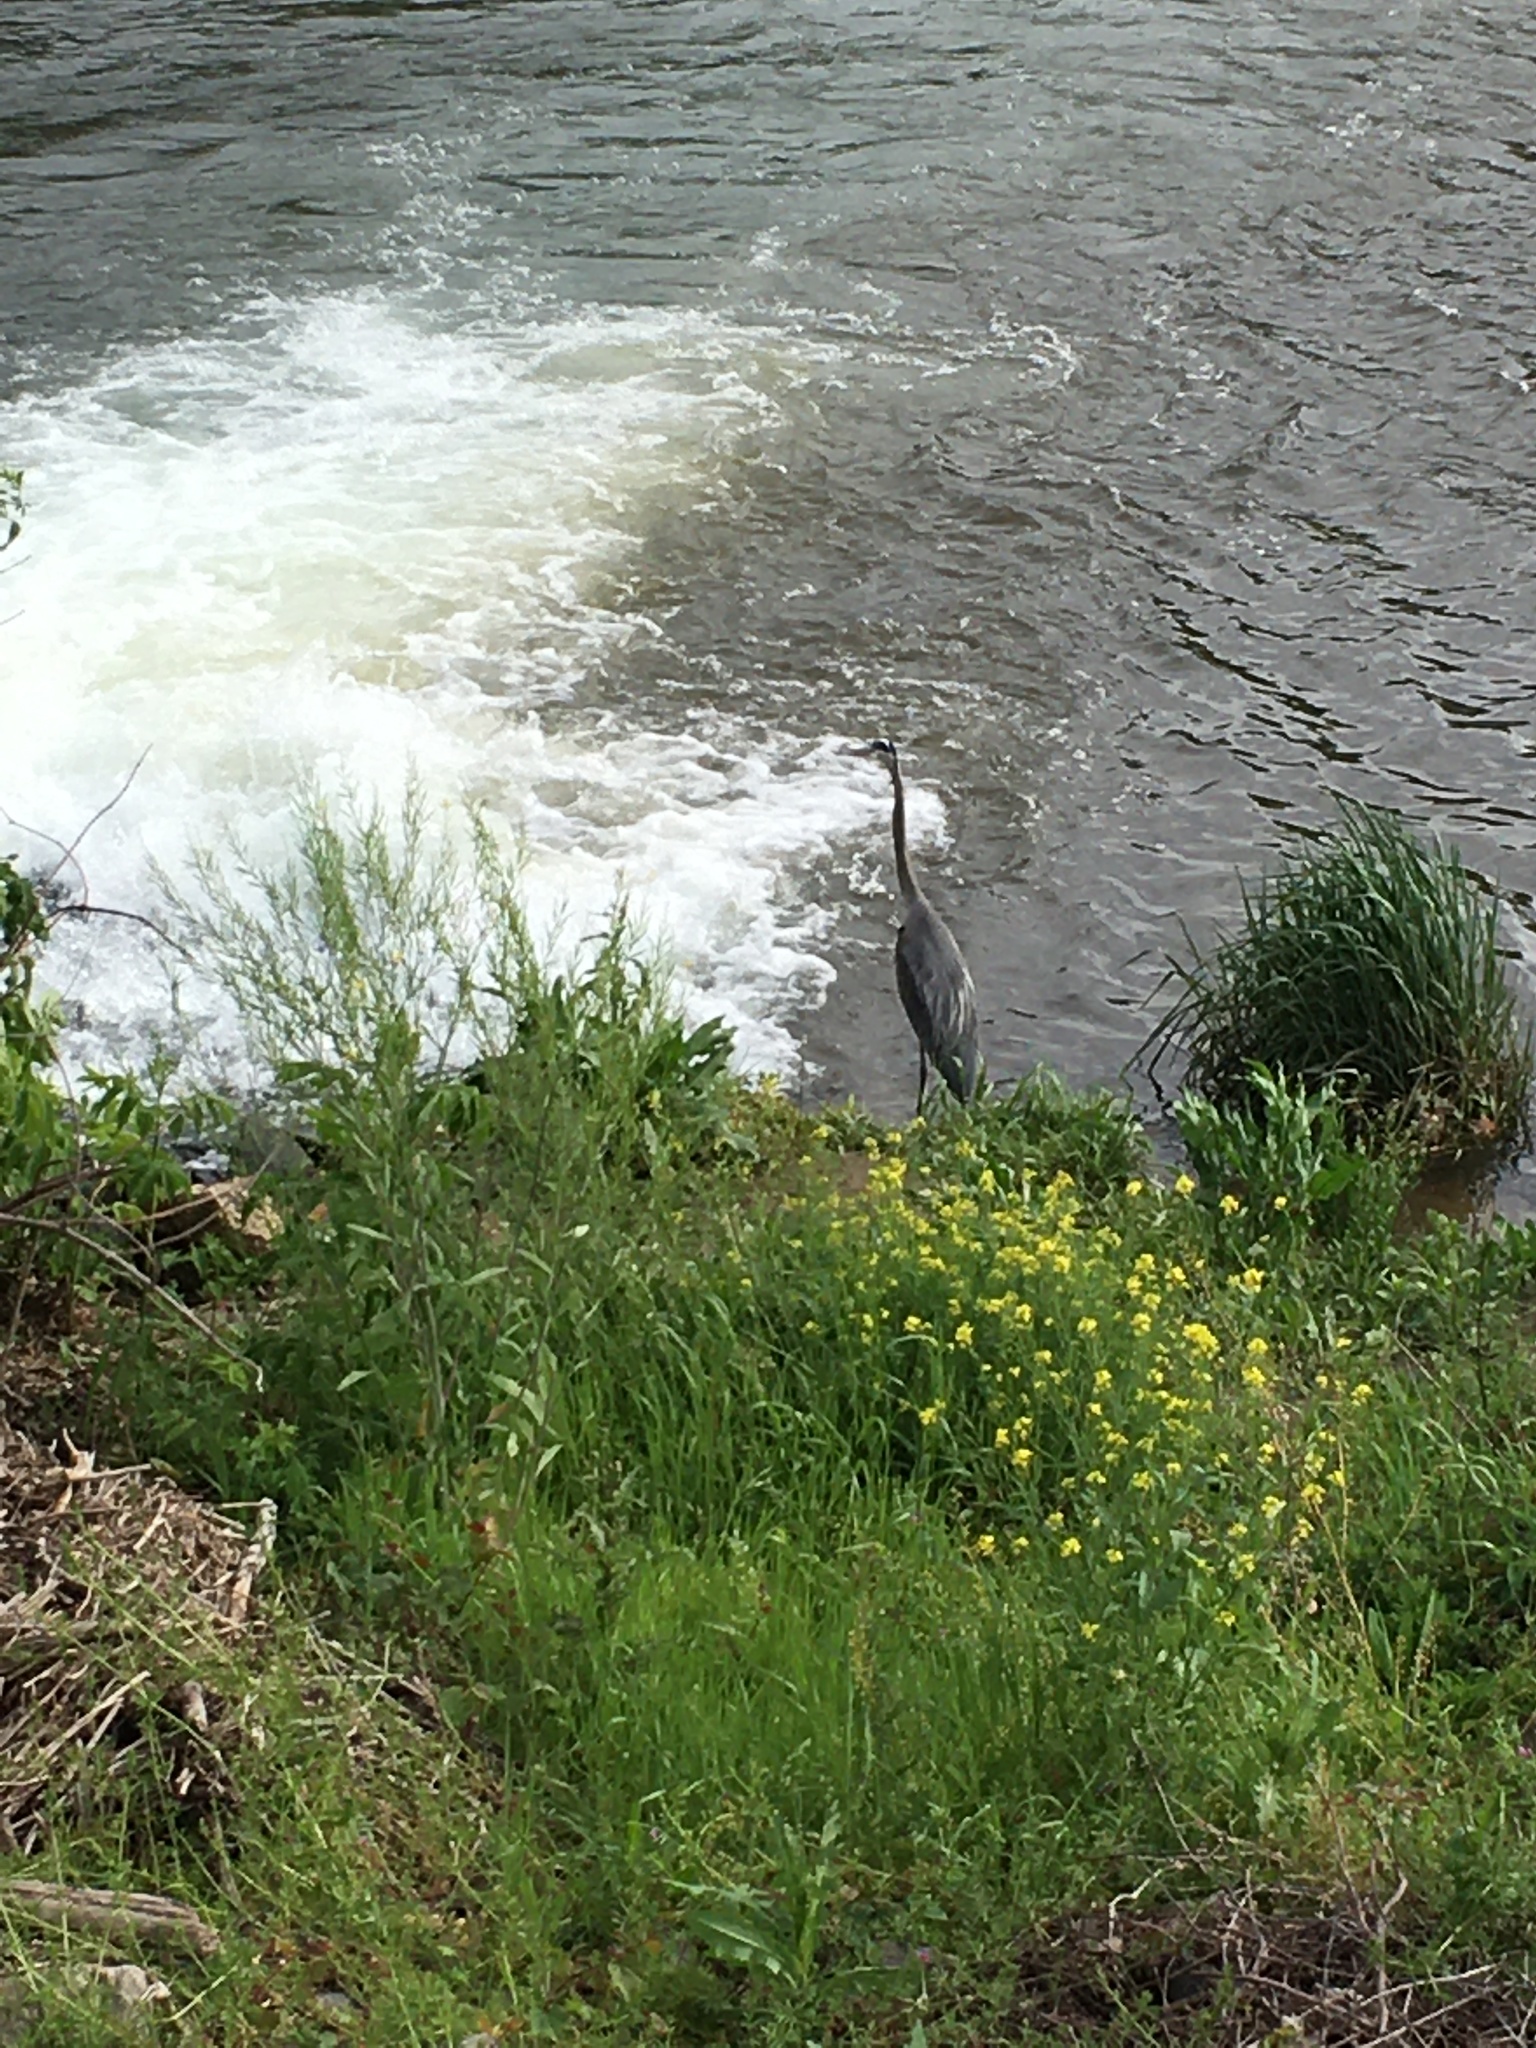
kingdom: Animalia
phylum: Chordata
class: Aves
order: Pelecaniformes
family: Ardeidae
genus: Ardea
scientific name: Ardea herodias
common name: Great blue heron
